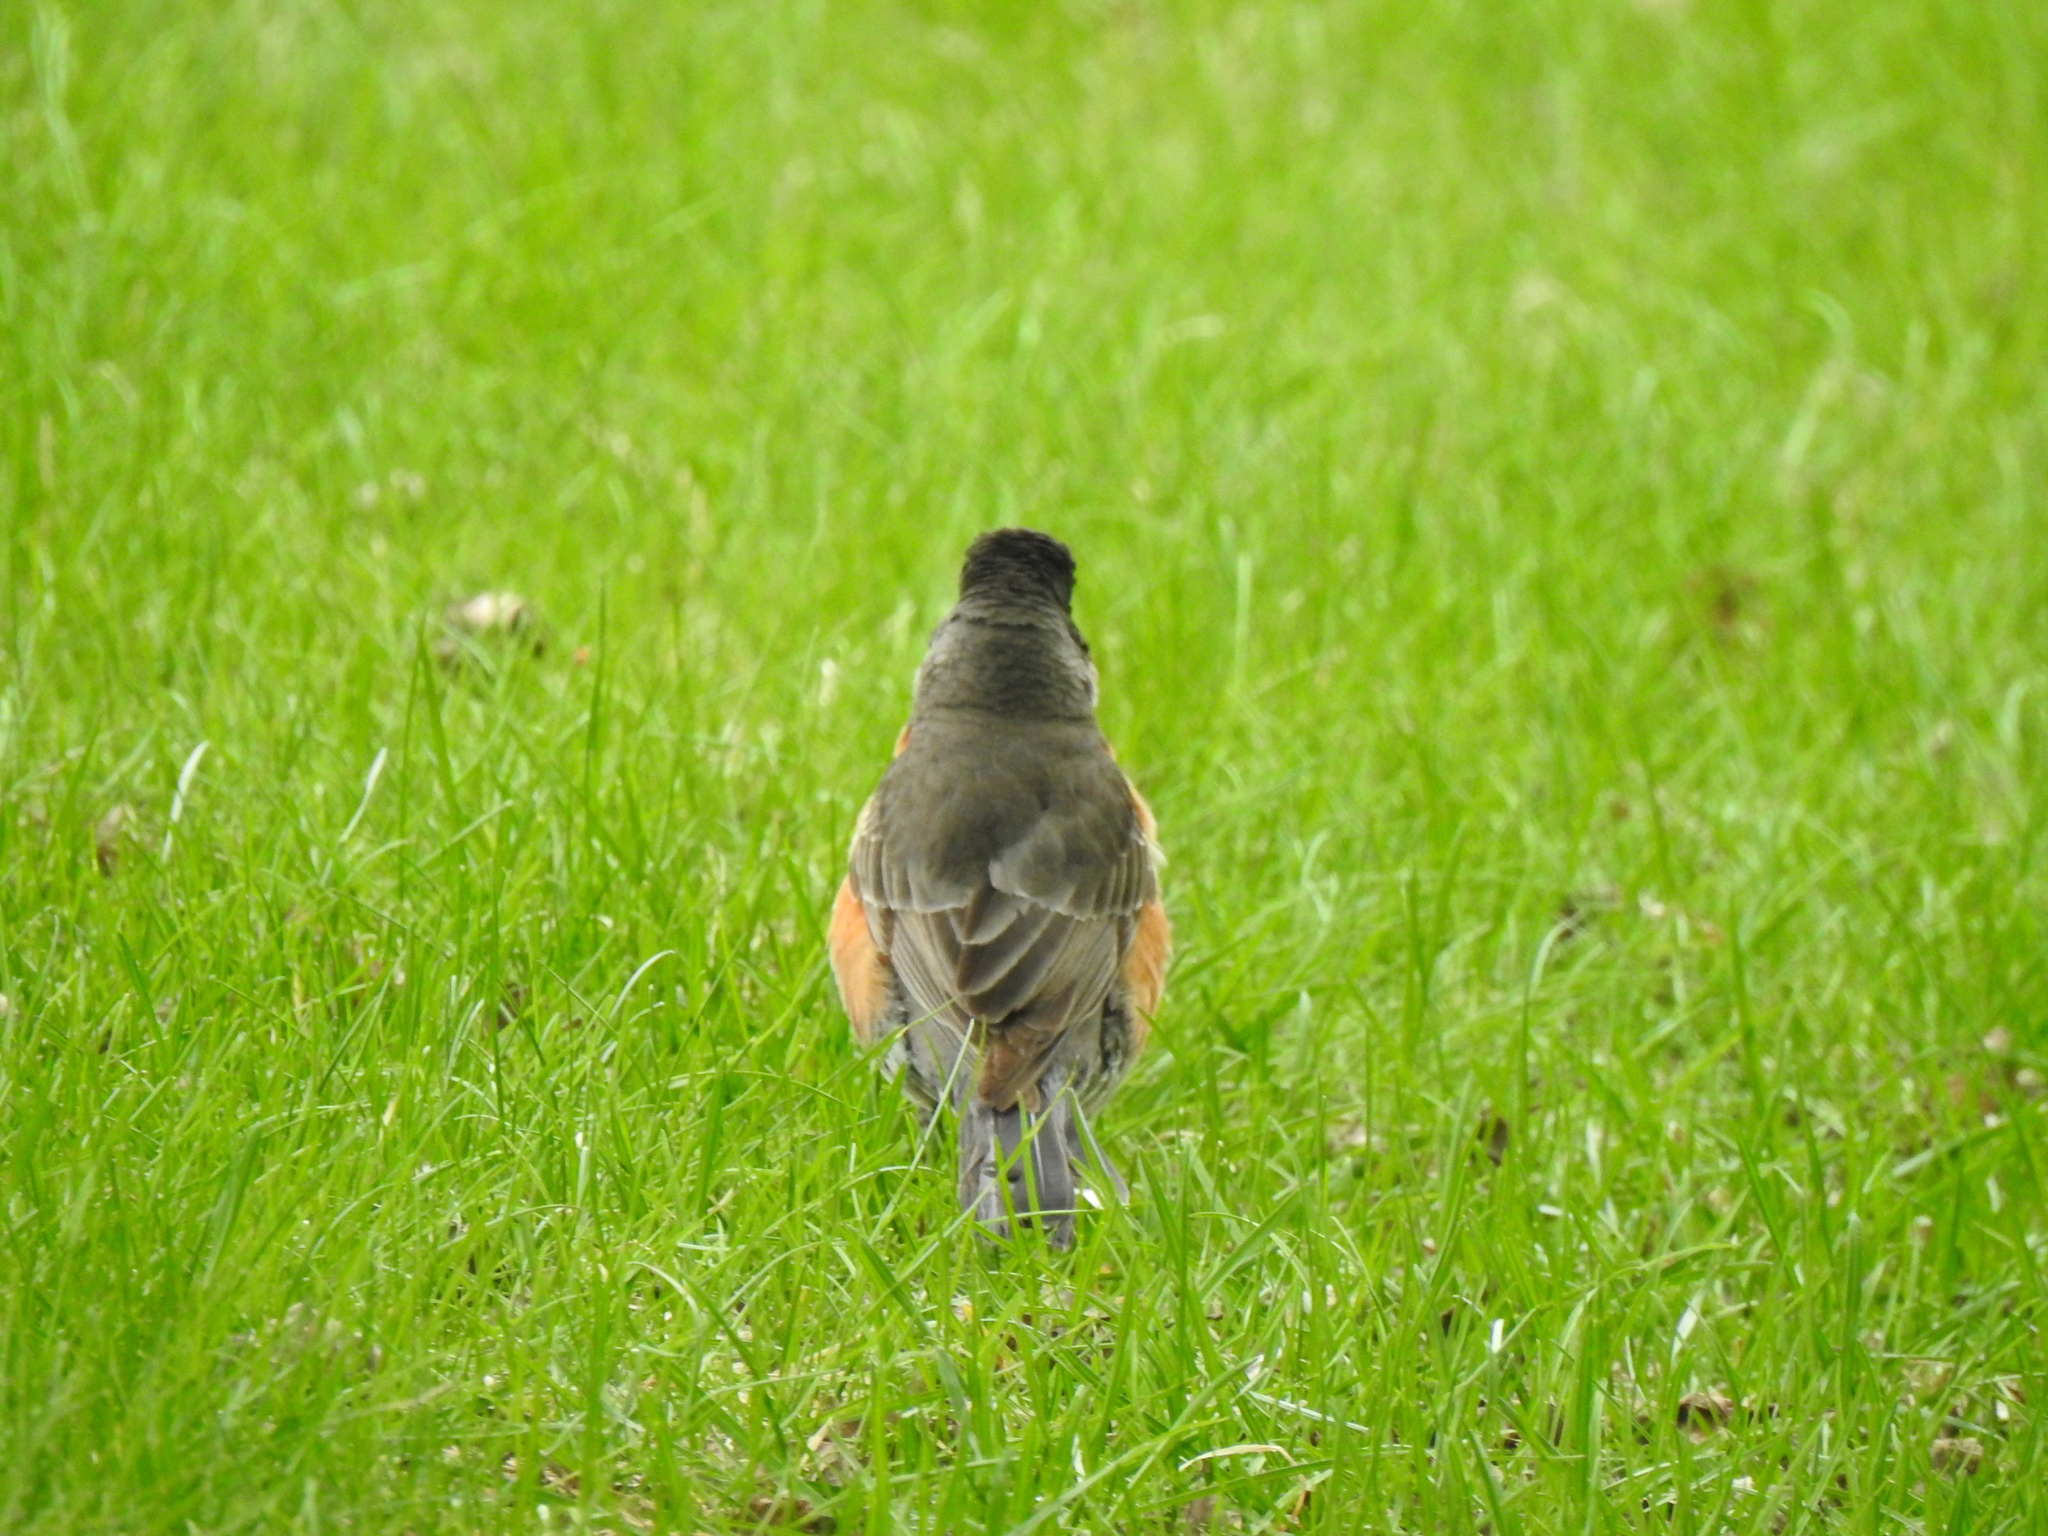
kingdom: Animalia
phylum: Chordata
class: Aves
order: Passeriformes
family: Turdidae
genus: Turdus
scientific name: Turdus migratorius
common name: American robin
